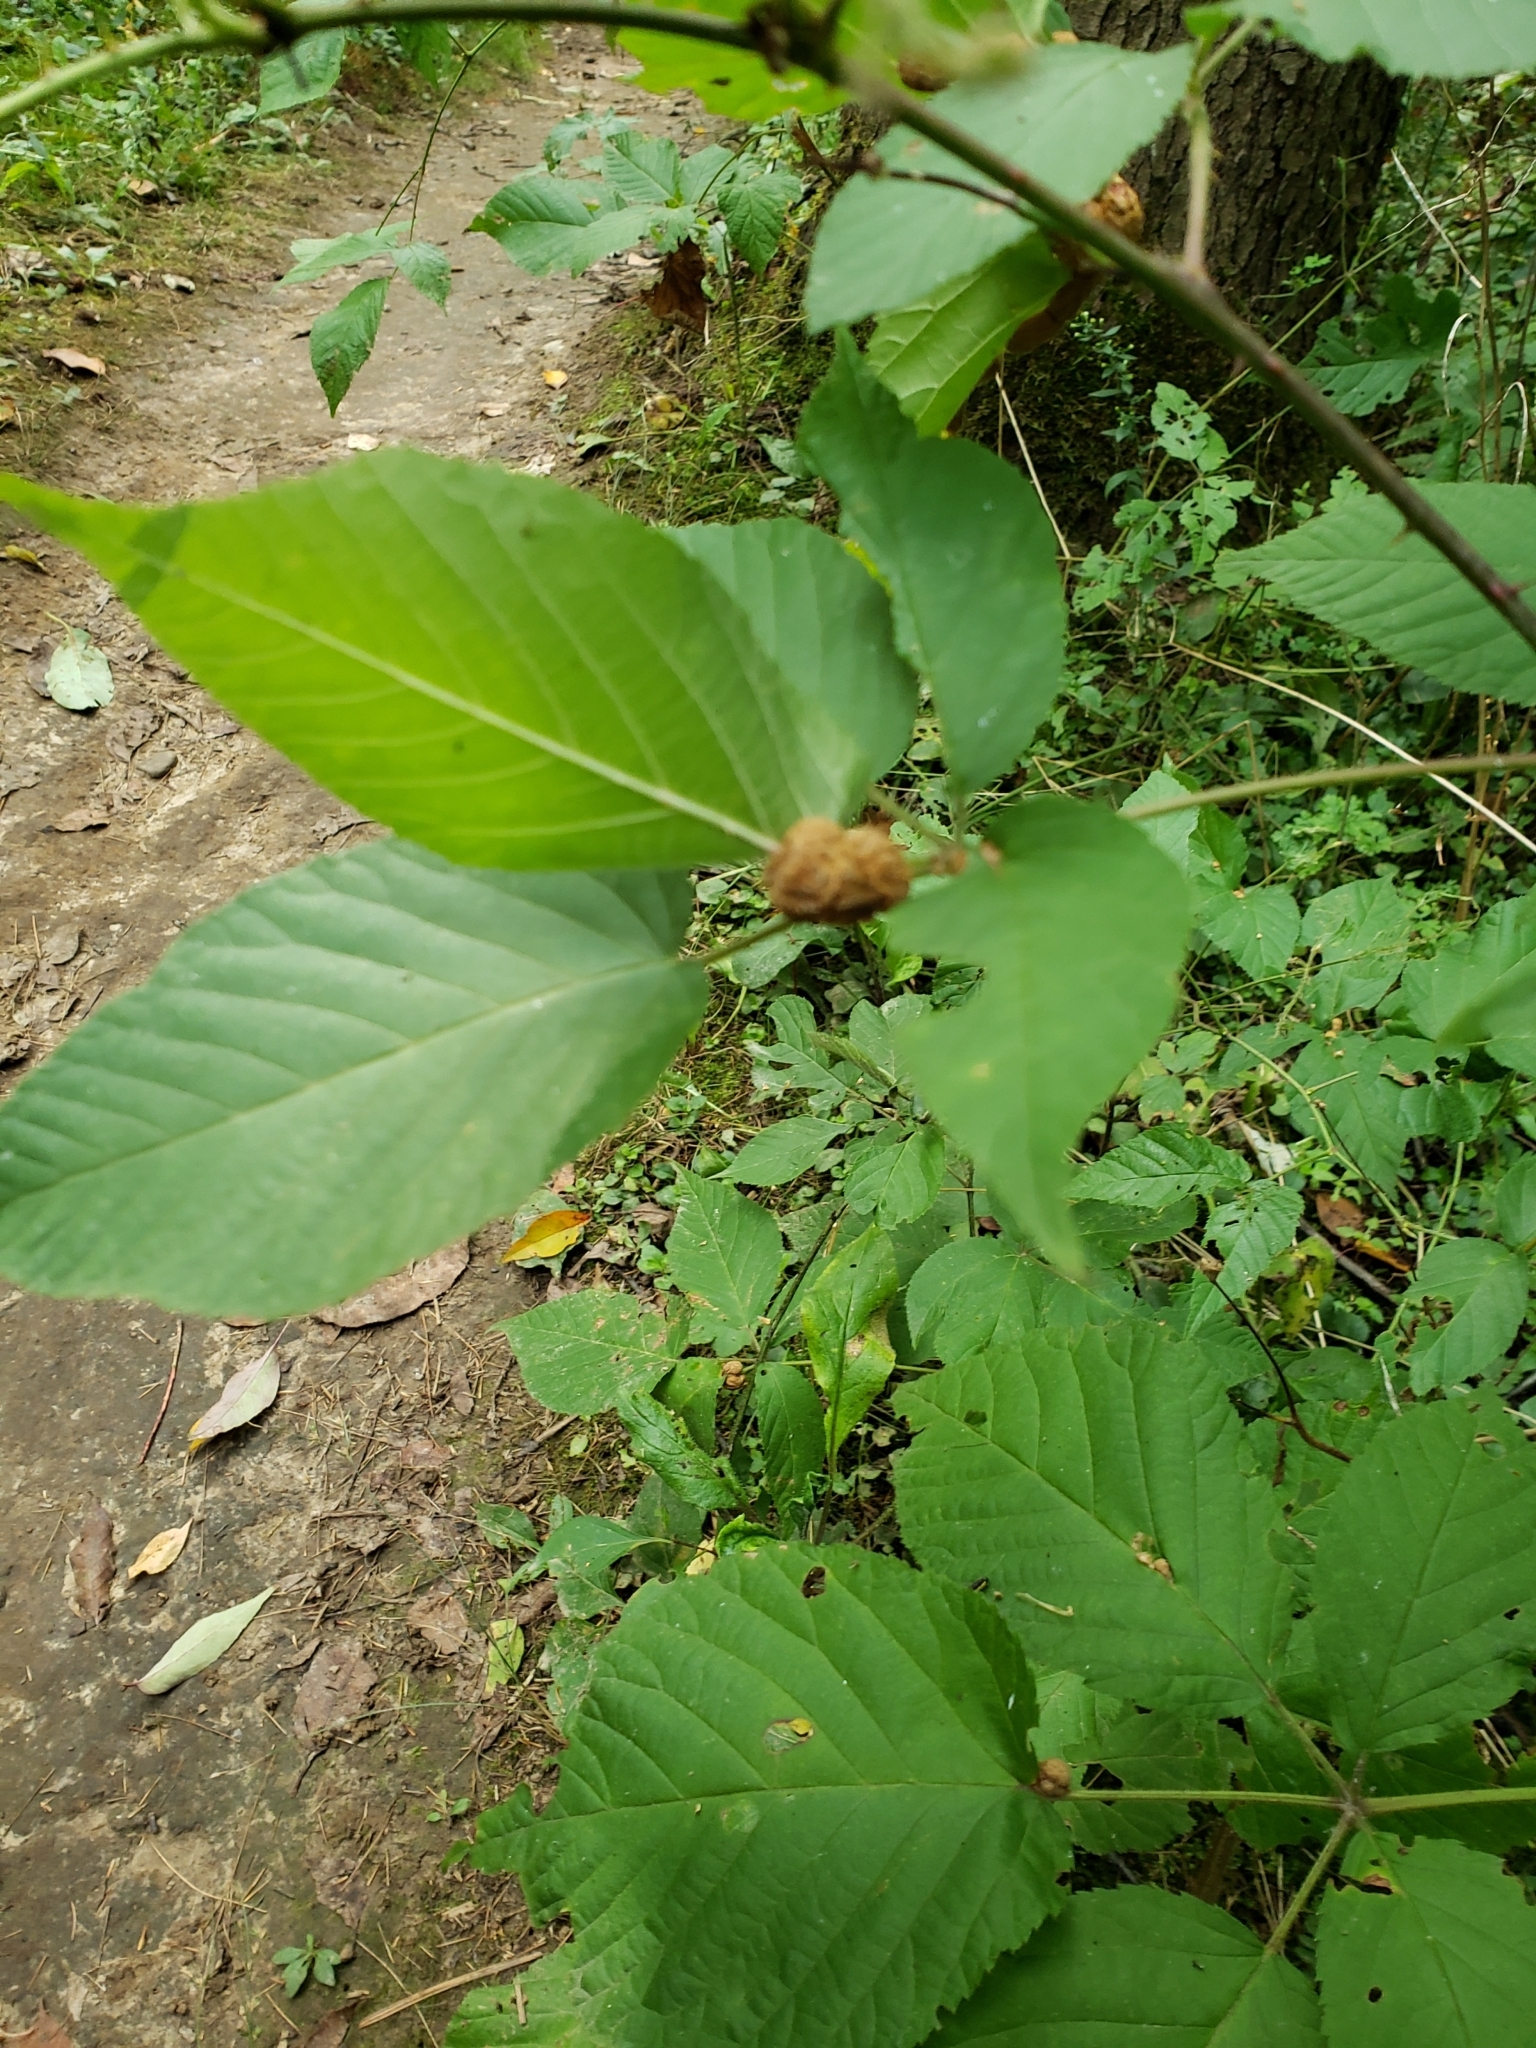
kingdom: Animalia
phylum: Arthropoda
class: Insecta
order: Diptera
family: Cecidomyiidae
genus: Neolasioptera
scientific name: Neolasioptera farinosa
